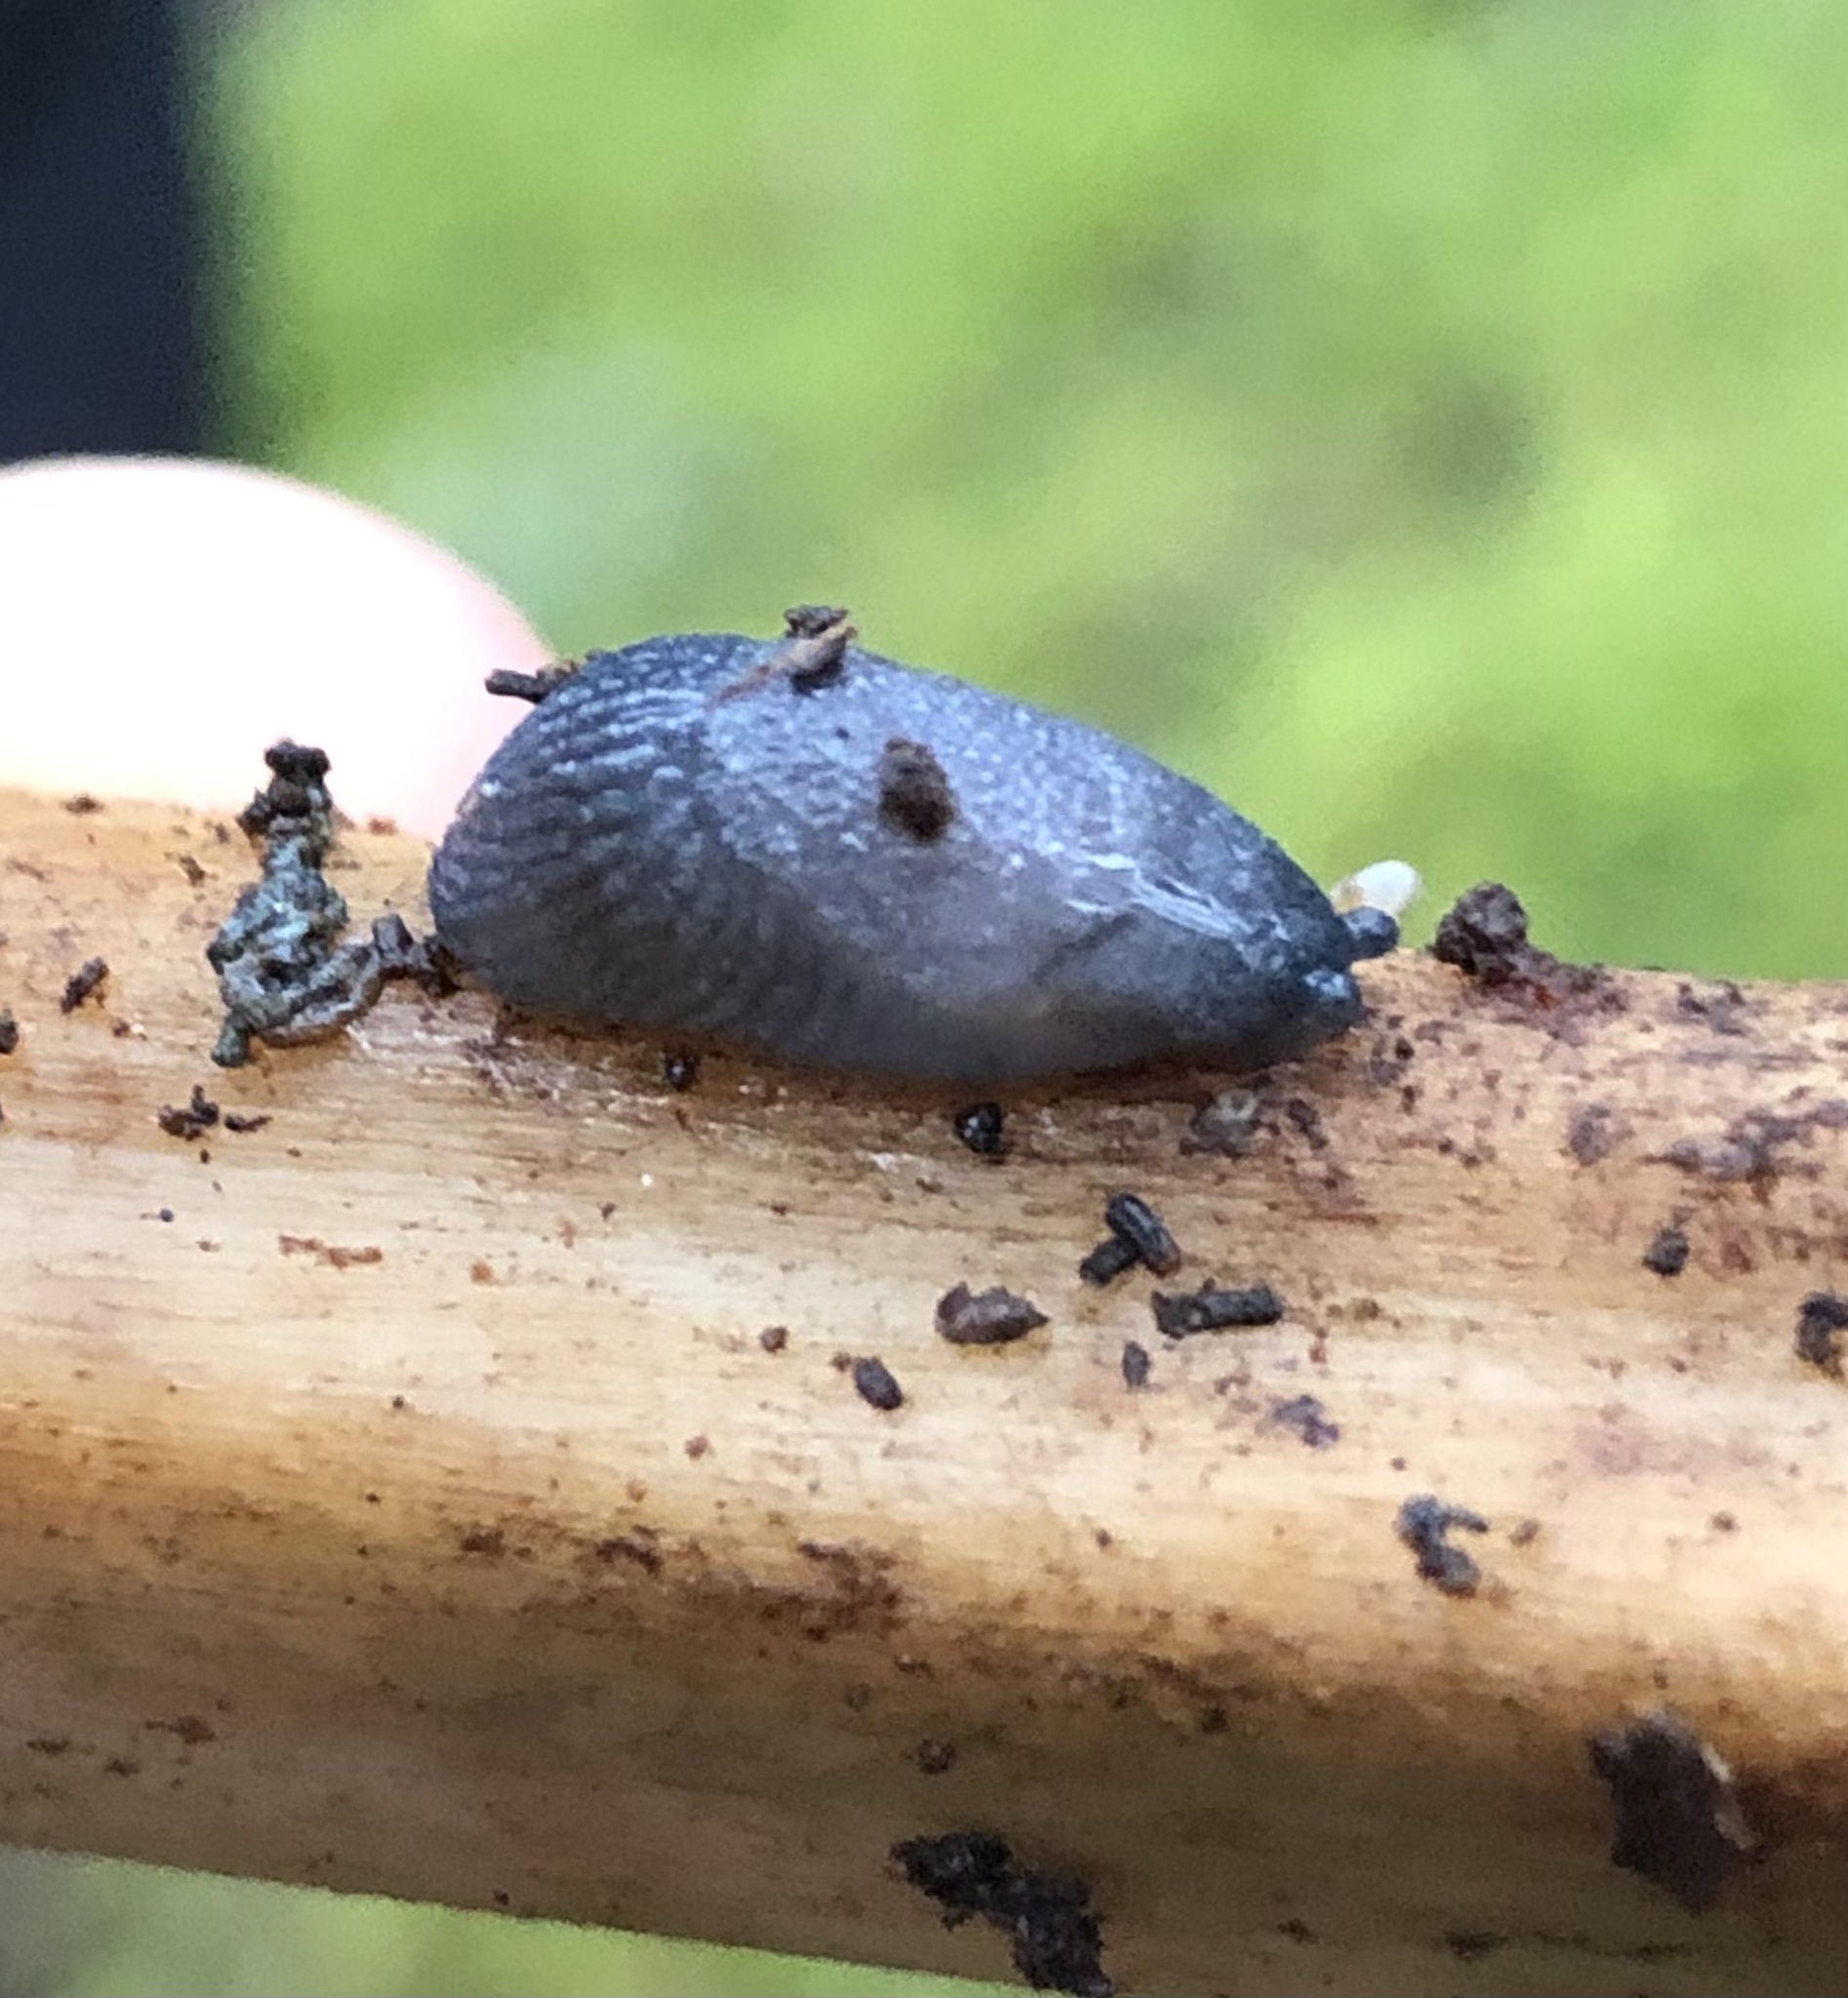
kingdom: Animalia
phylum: Mollusca
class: Gastropoda
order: Stylommatophora
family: Ariolimacidae
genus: Prophysaon
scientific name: Prophysaon coeruleum
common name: Blue-gray taildropper
